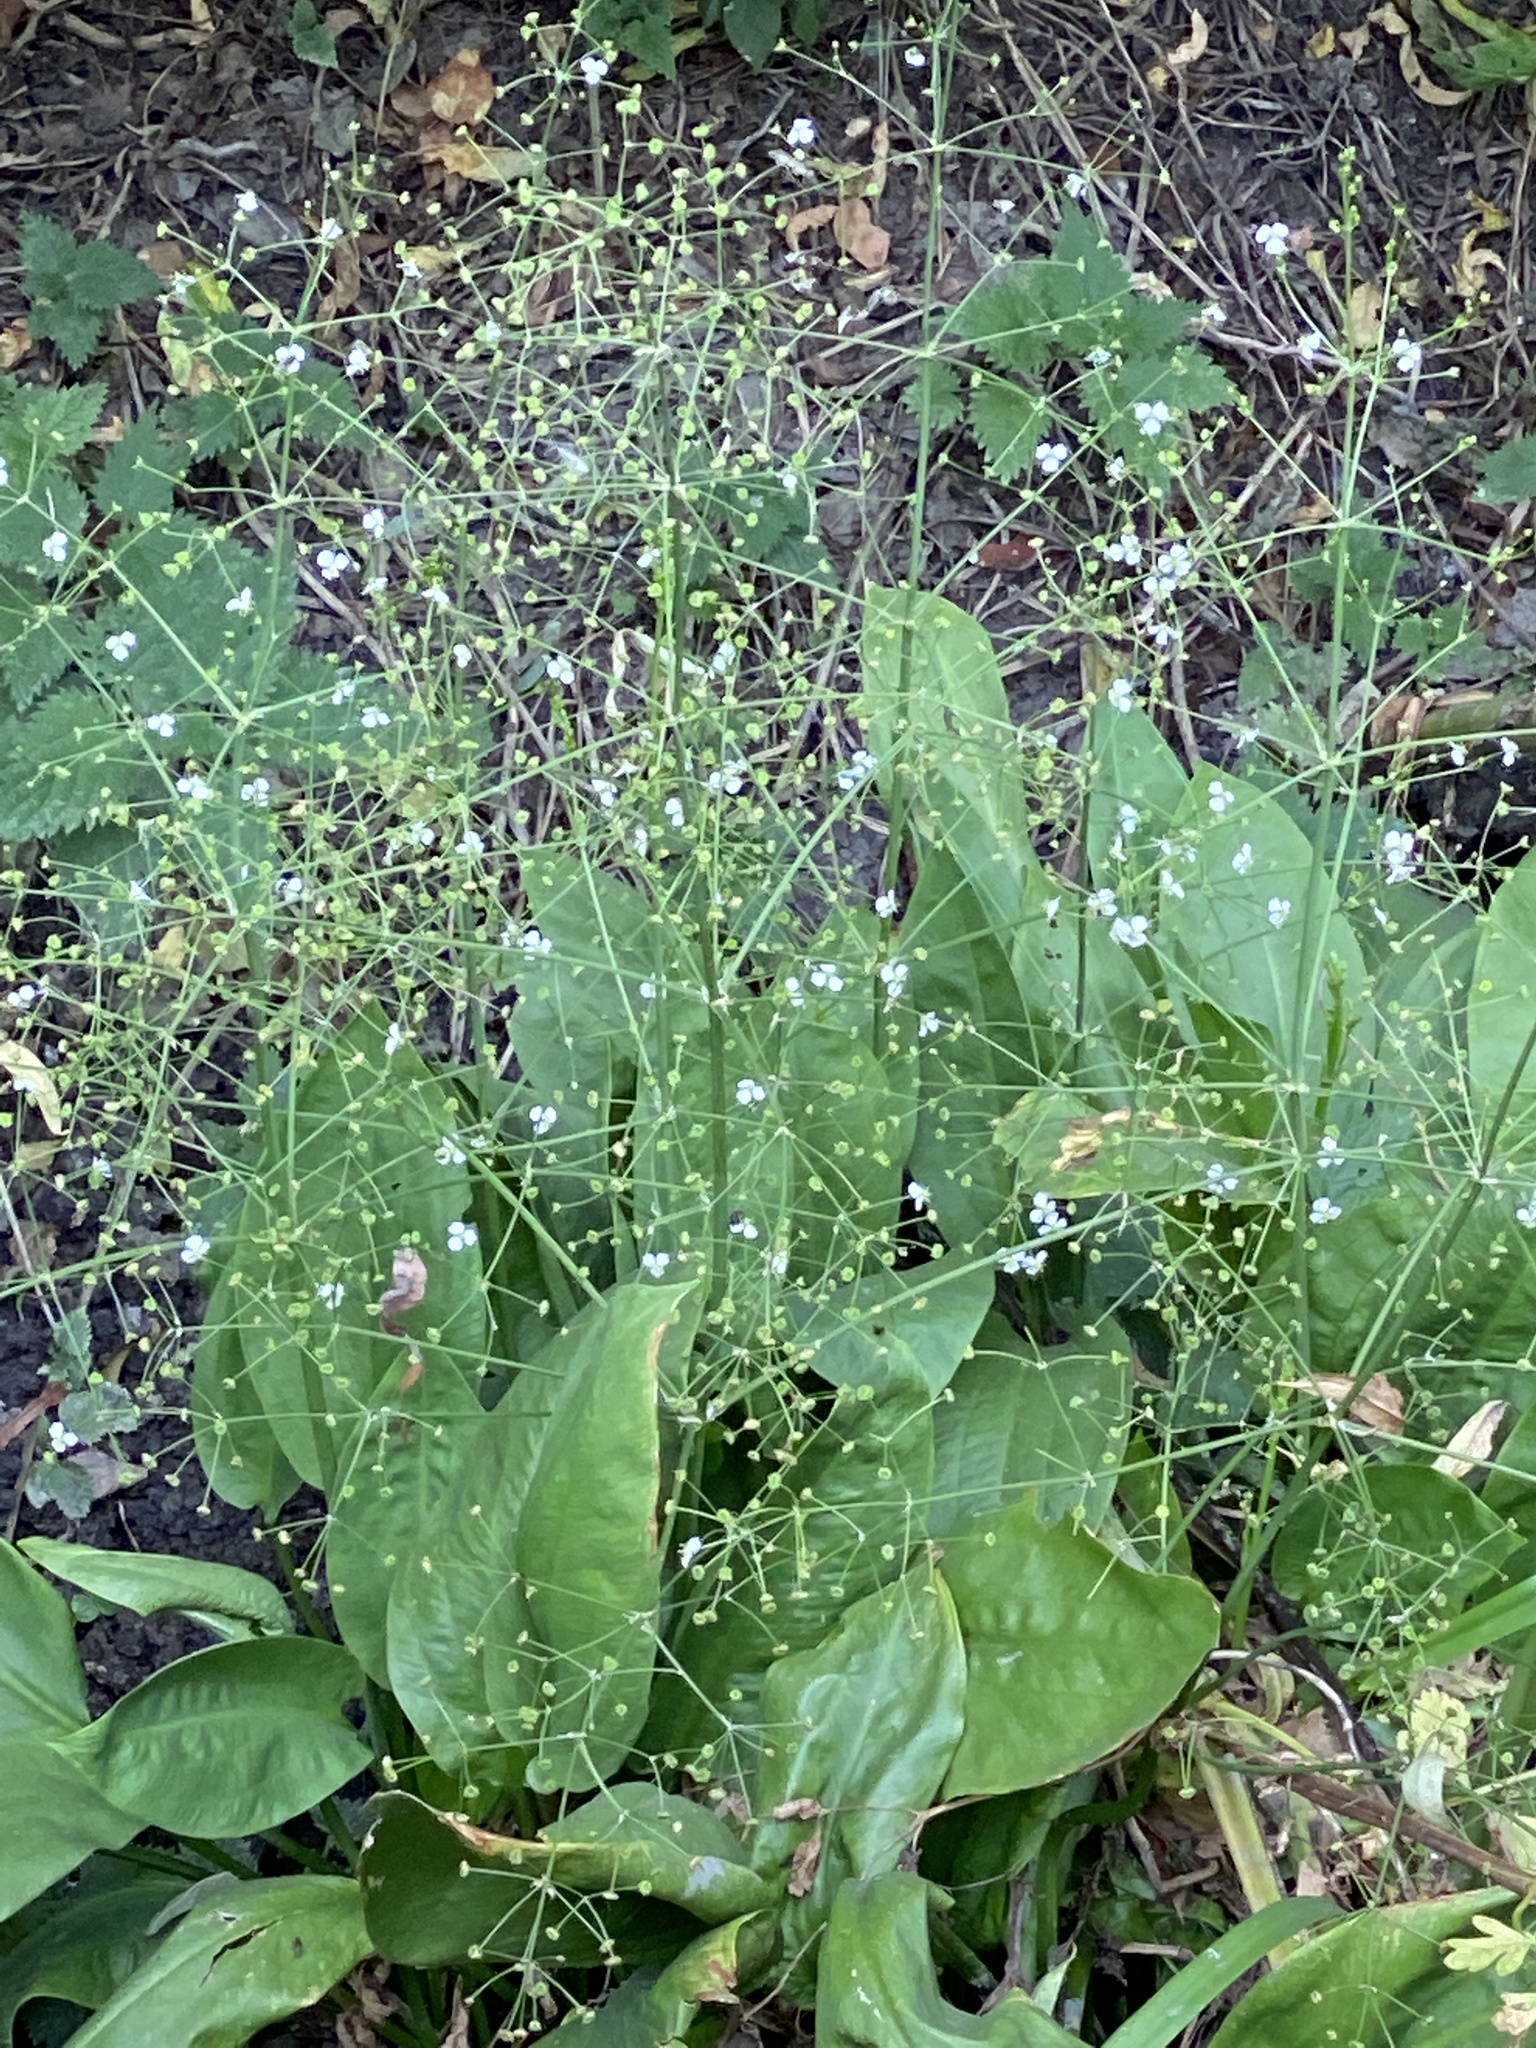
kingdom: Plantae
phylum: Tracheophyta
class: Liliopsida
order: Alismatales
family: Alismataceae
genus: Alisma
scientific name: Alisma plantago-aquatica
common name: Water-plantain
